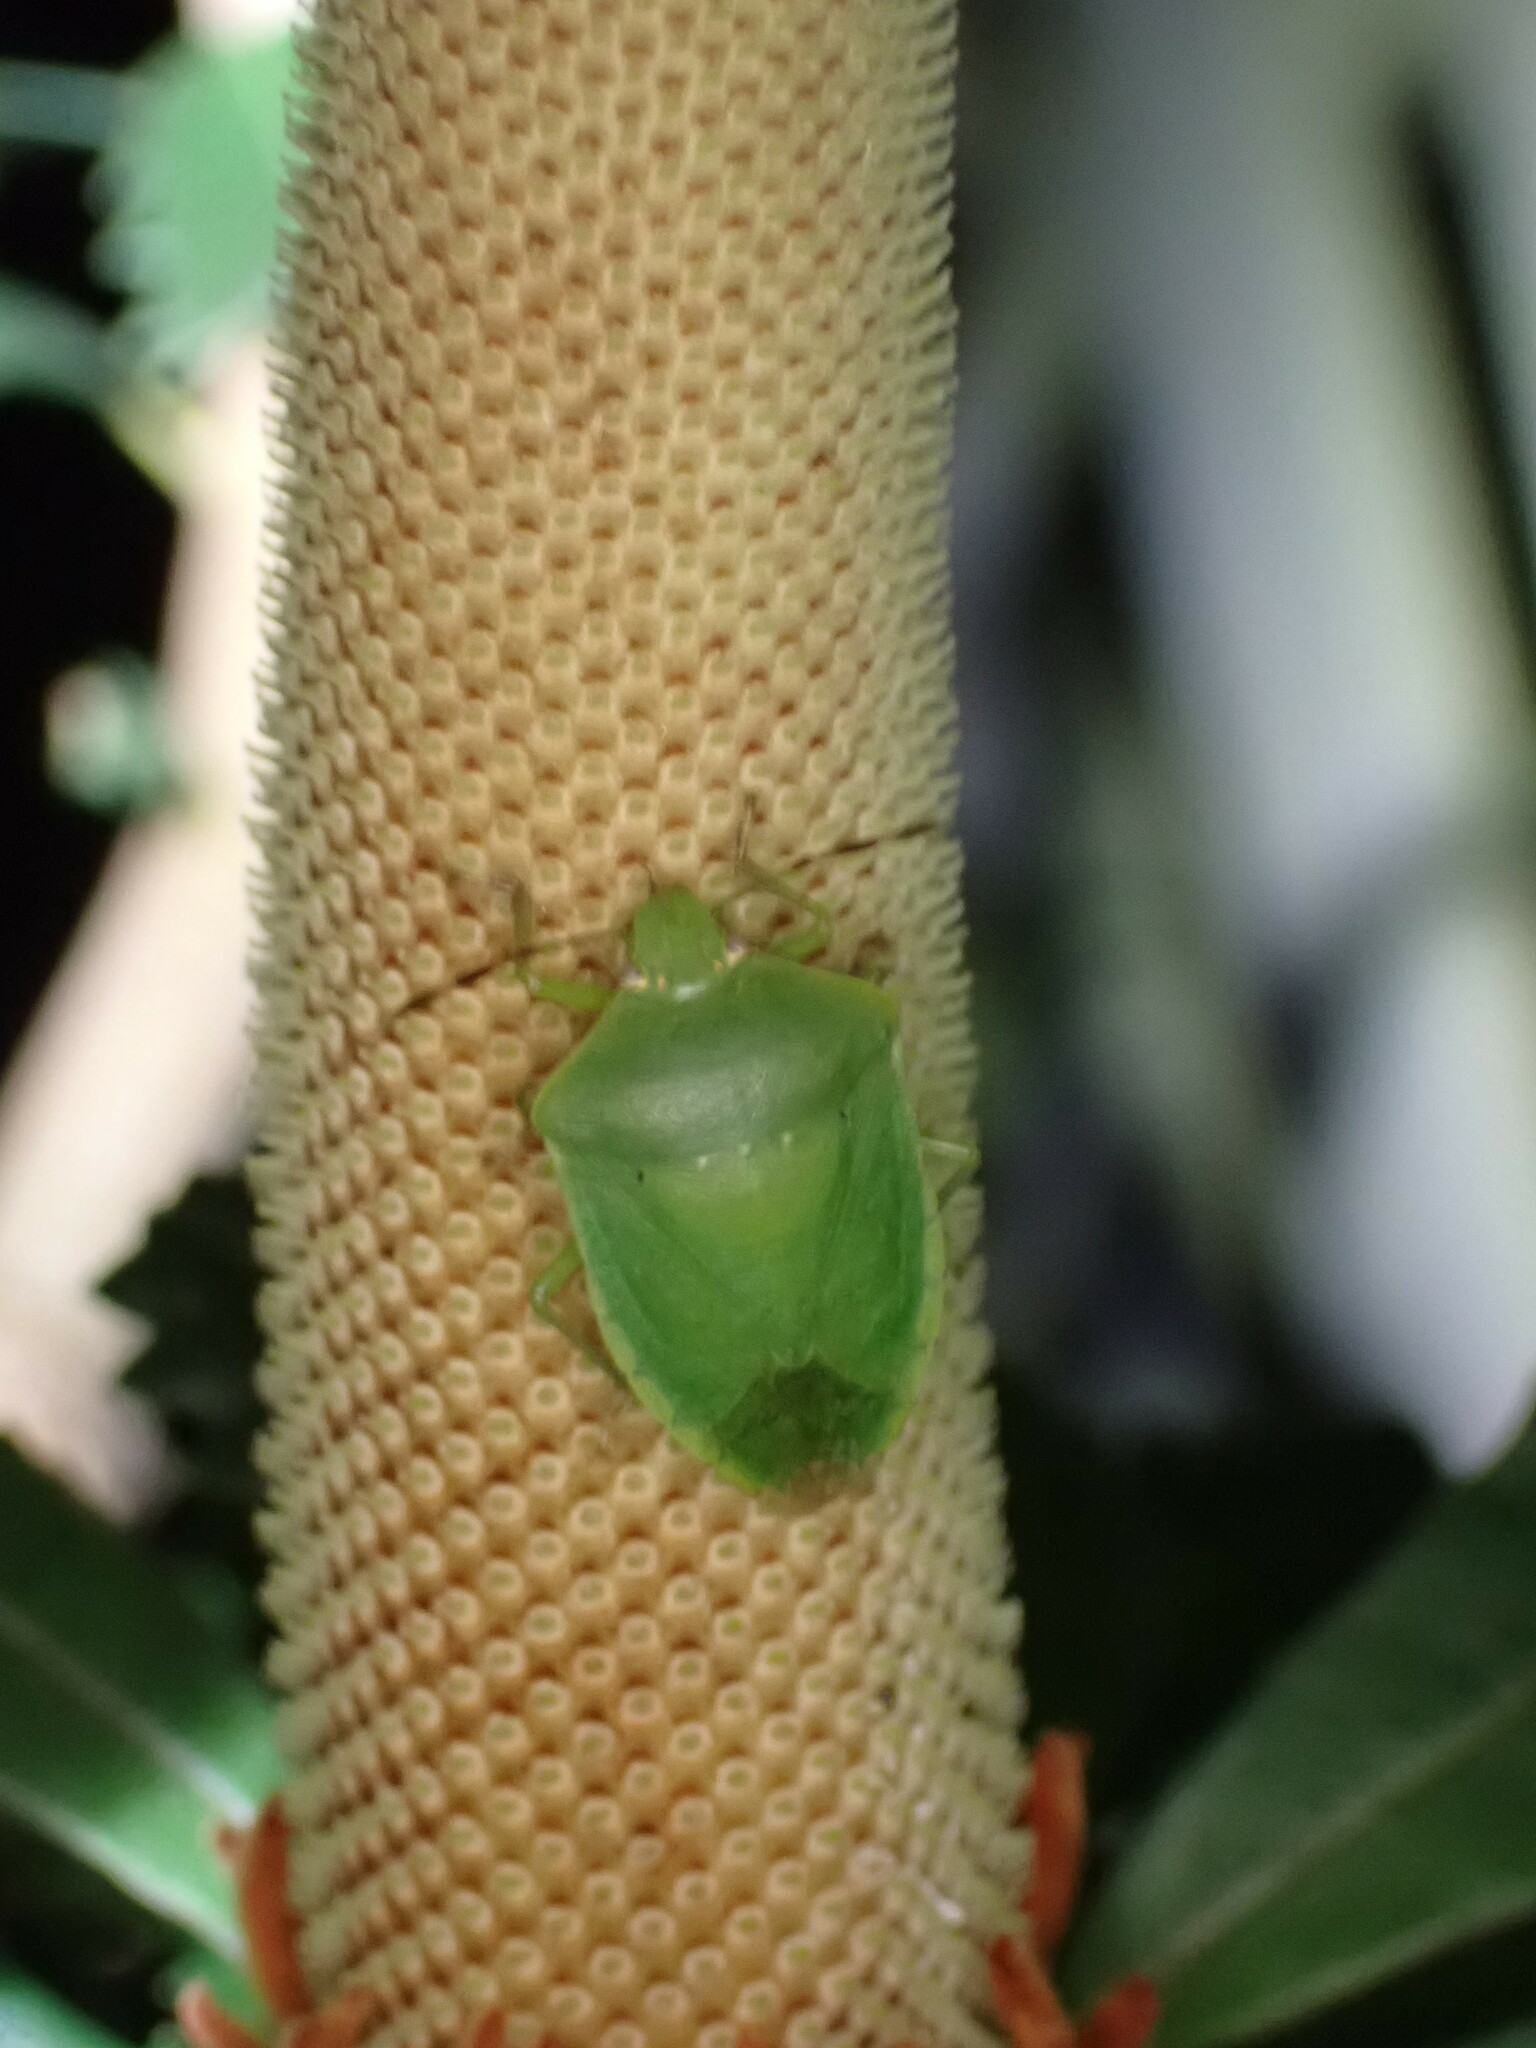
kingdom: Animalia
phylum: Arthropoda
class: Insecta
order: Hemiptera
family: Pentatomidae
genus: Nezara
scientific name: Nezara viridula
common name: Southern green stink bug
